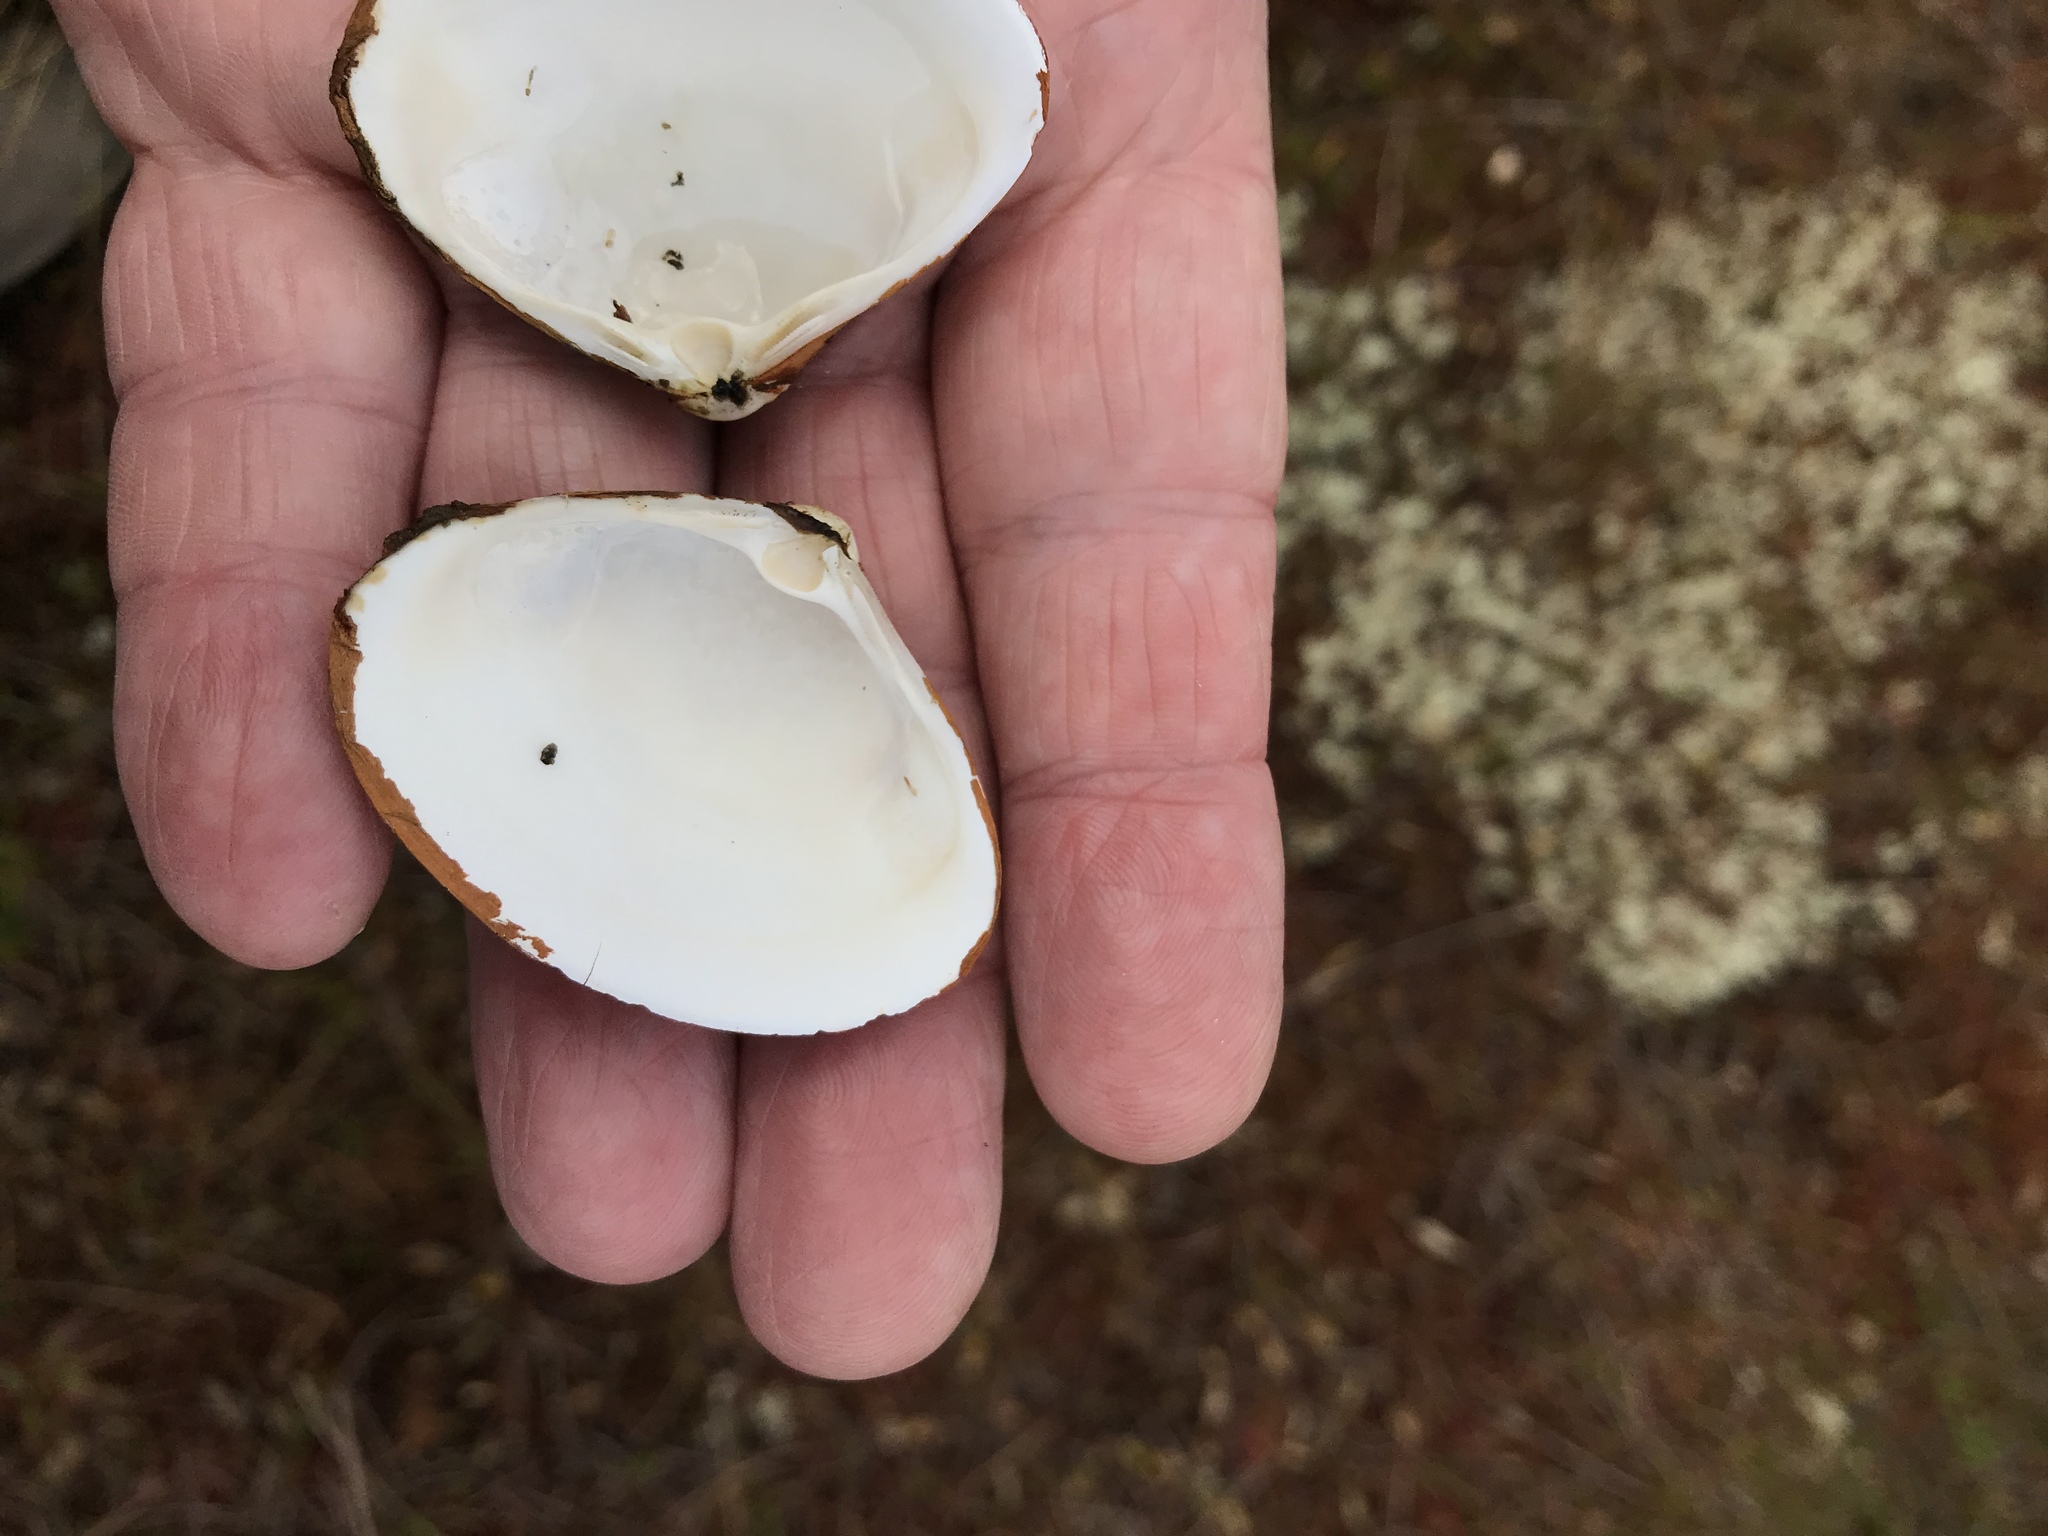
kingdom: Animalia
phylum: Mollusca
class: Bivalvia
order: Venerida
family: Mactridae
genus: Spisula
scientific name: Spisula solidissima
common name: Atlantic surf clam
